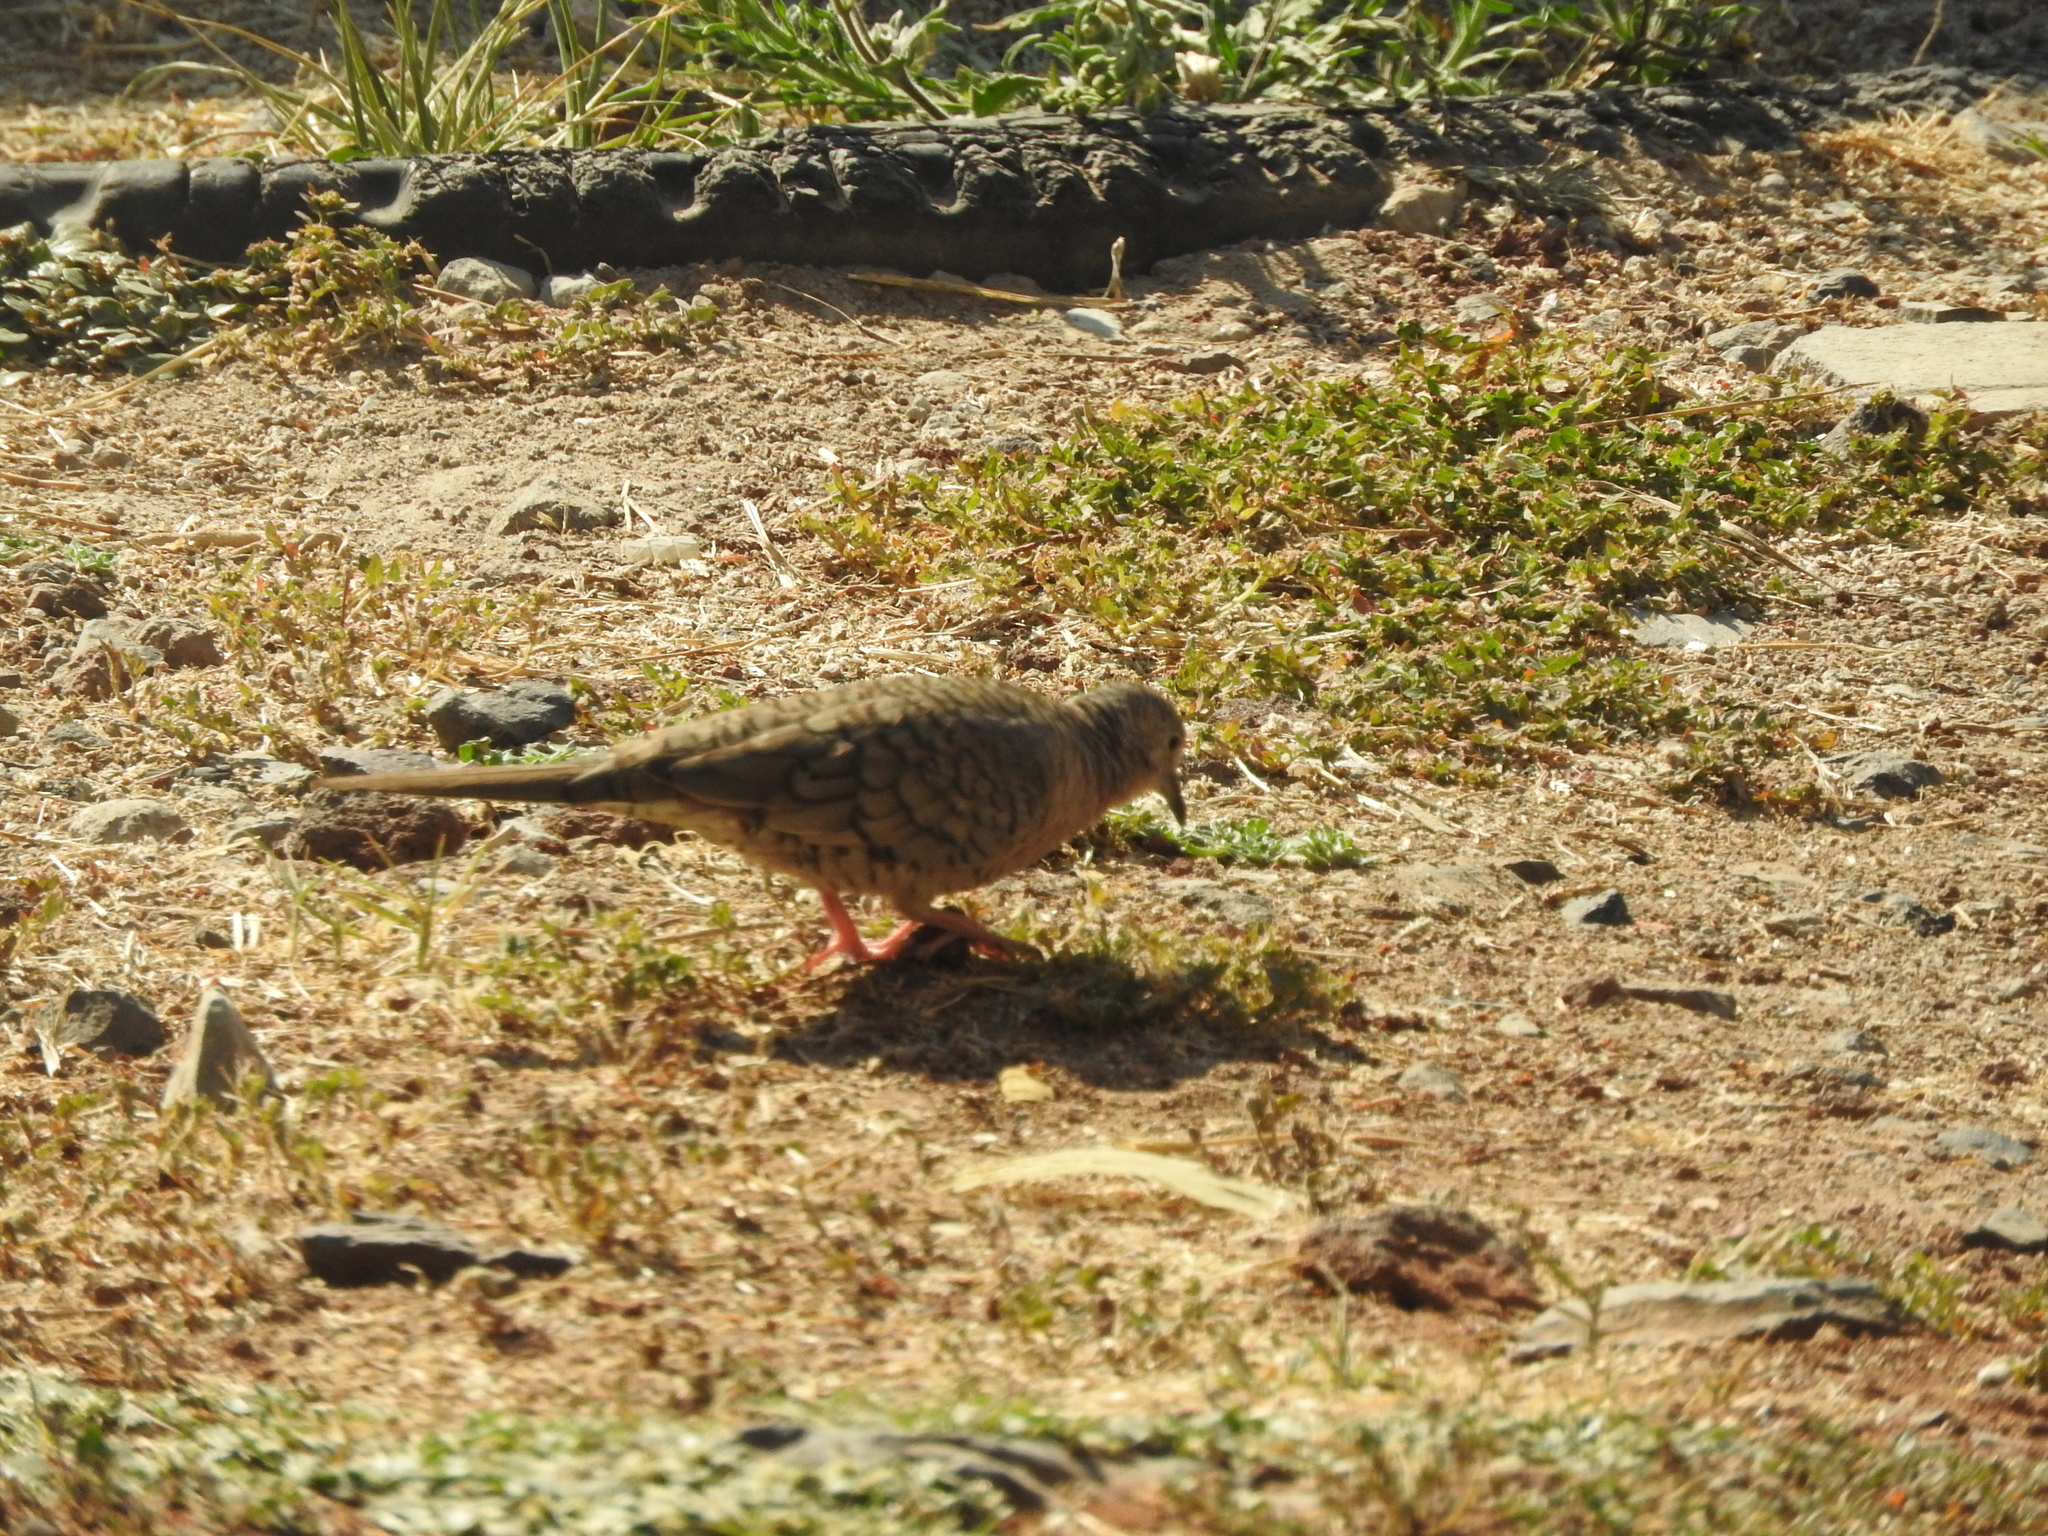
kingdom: Animalia
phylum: Chordata
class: Aves
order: Columbiformes
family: Columbidae
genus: Columbina
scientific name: Columbina inca
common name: Inca dove
